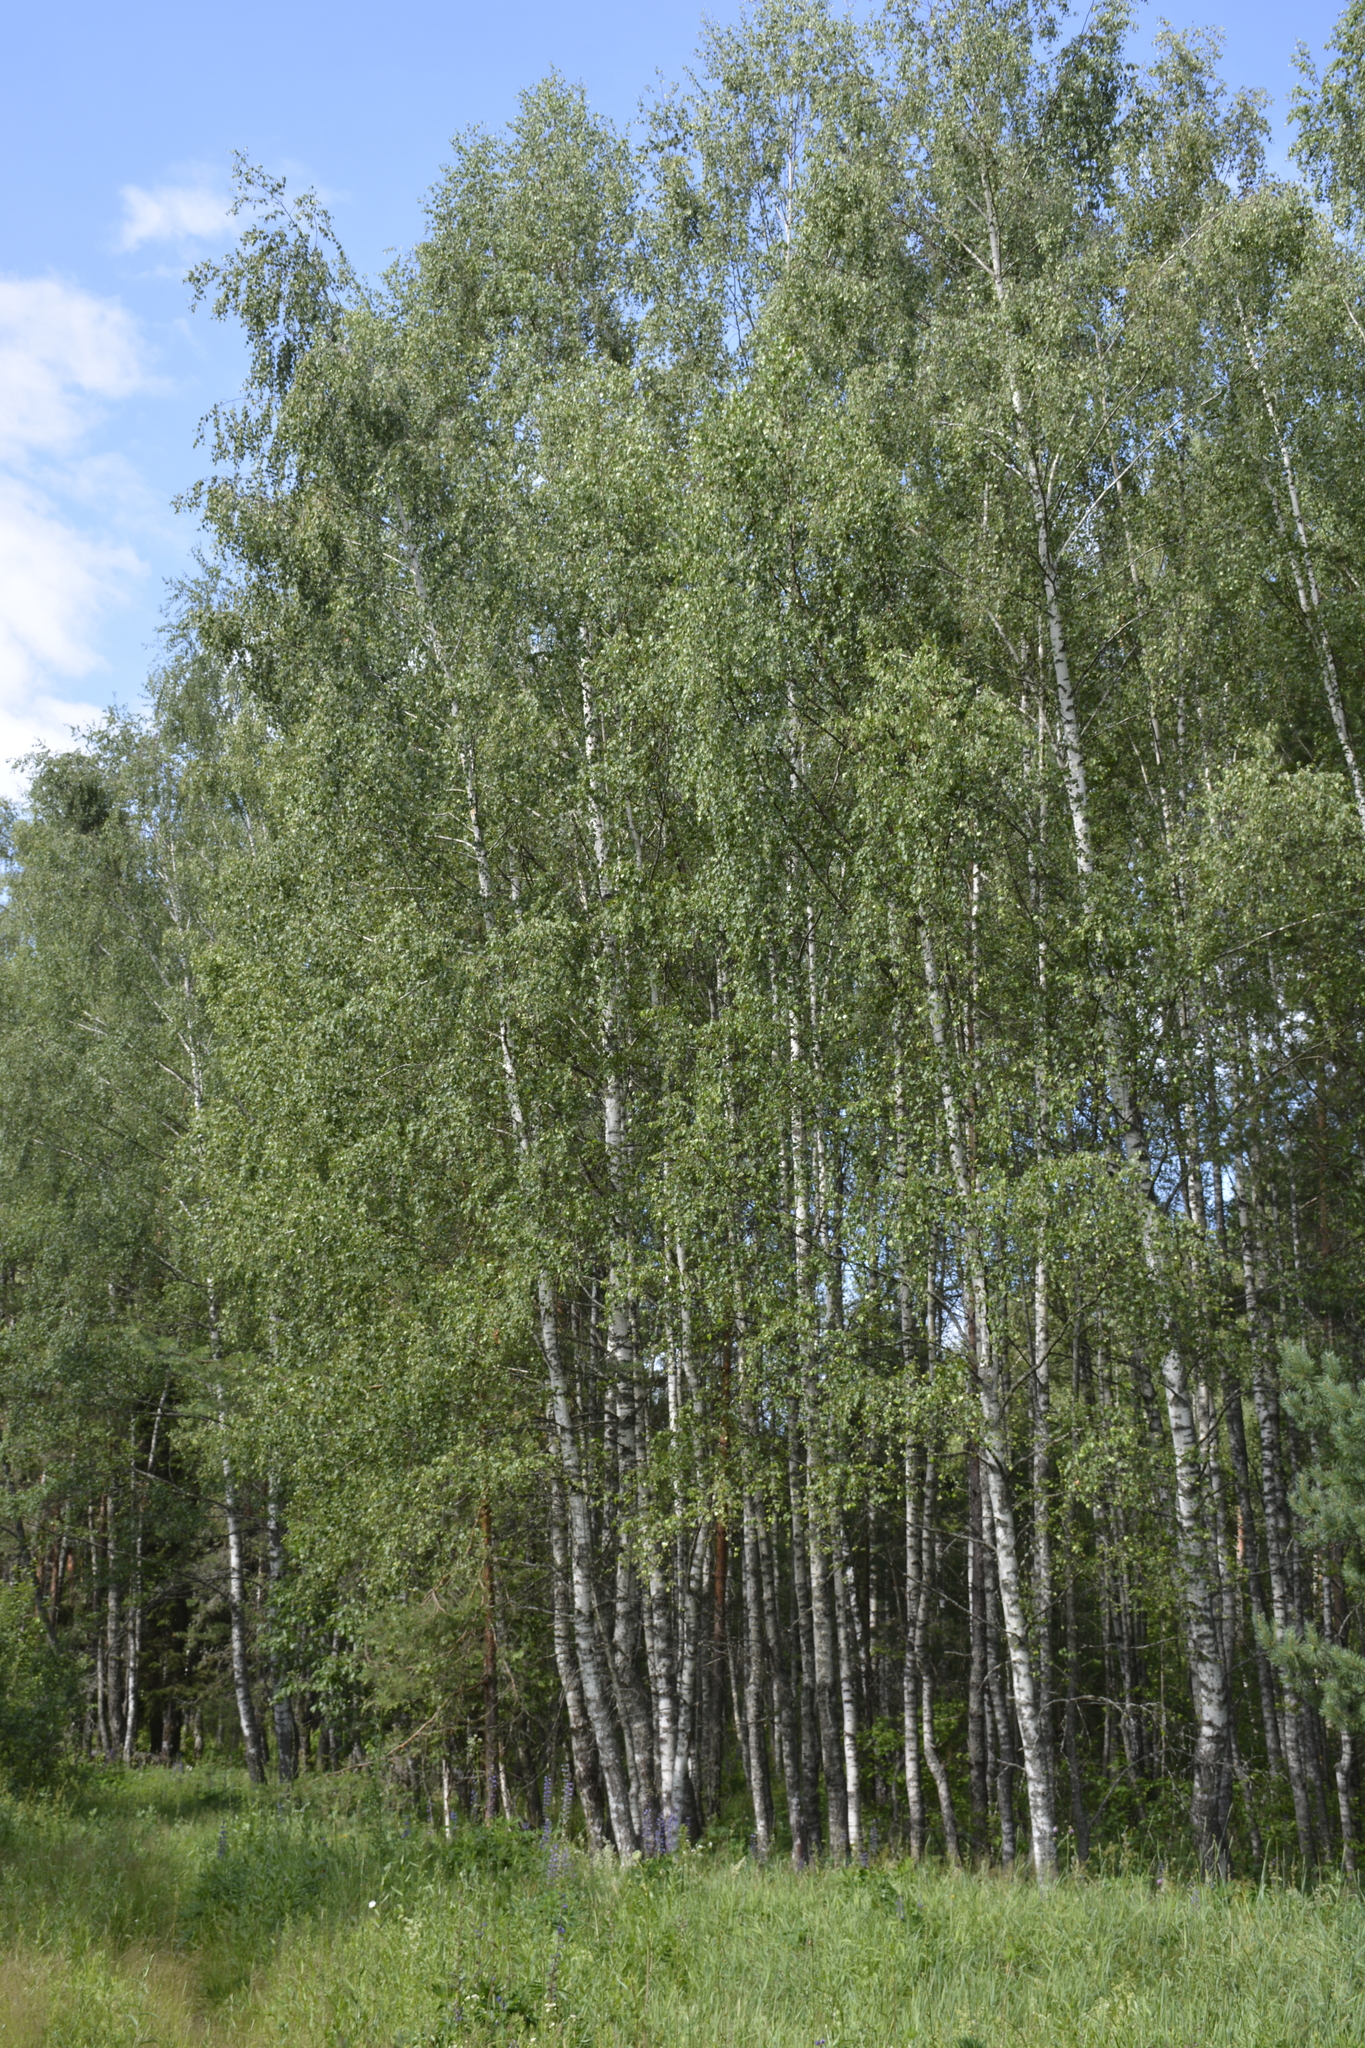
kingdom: Plantae
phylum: Tracheophyta
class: Magnoliopsida
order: Fagales
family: Betulaceae
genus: Betula
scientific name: Betula pendula
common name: Silver birch
